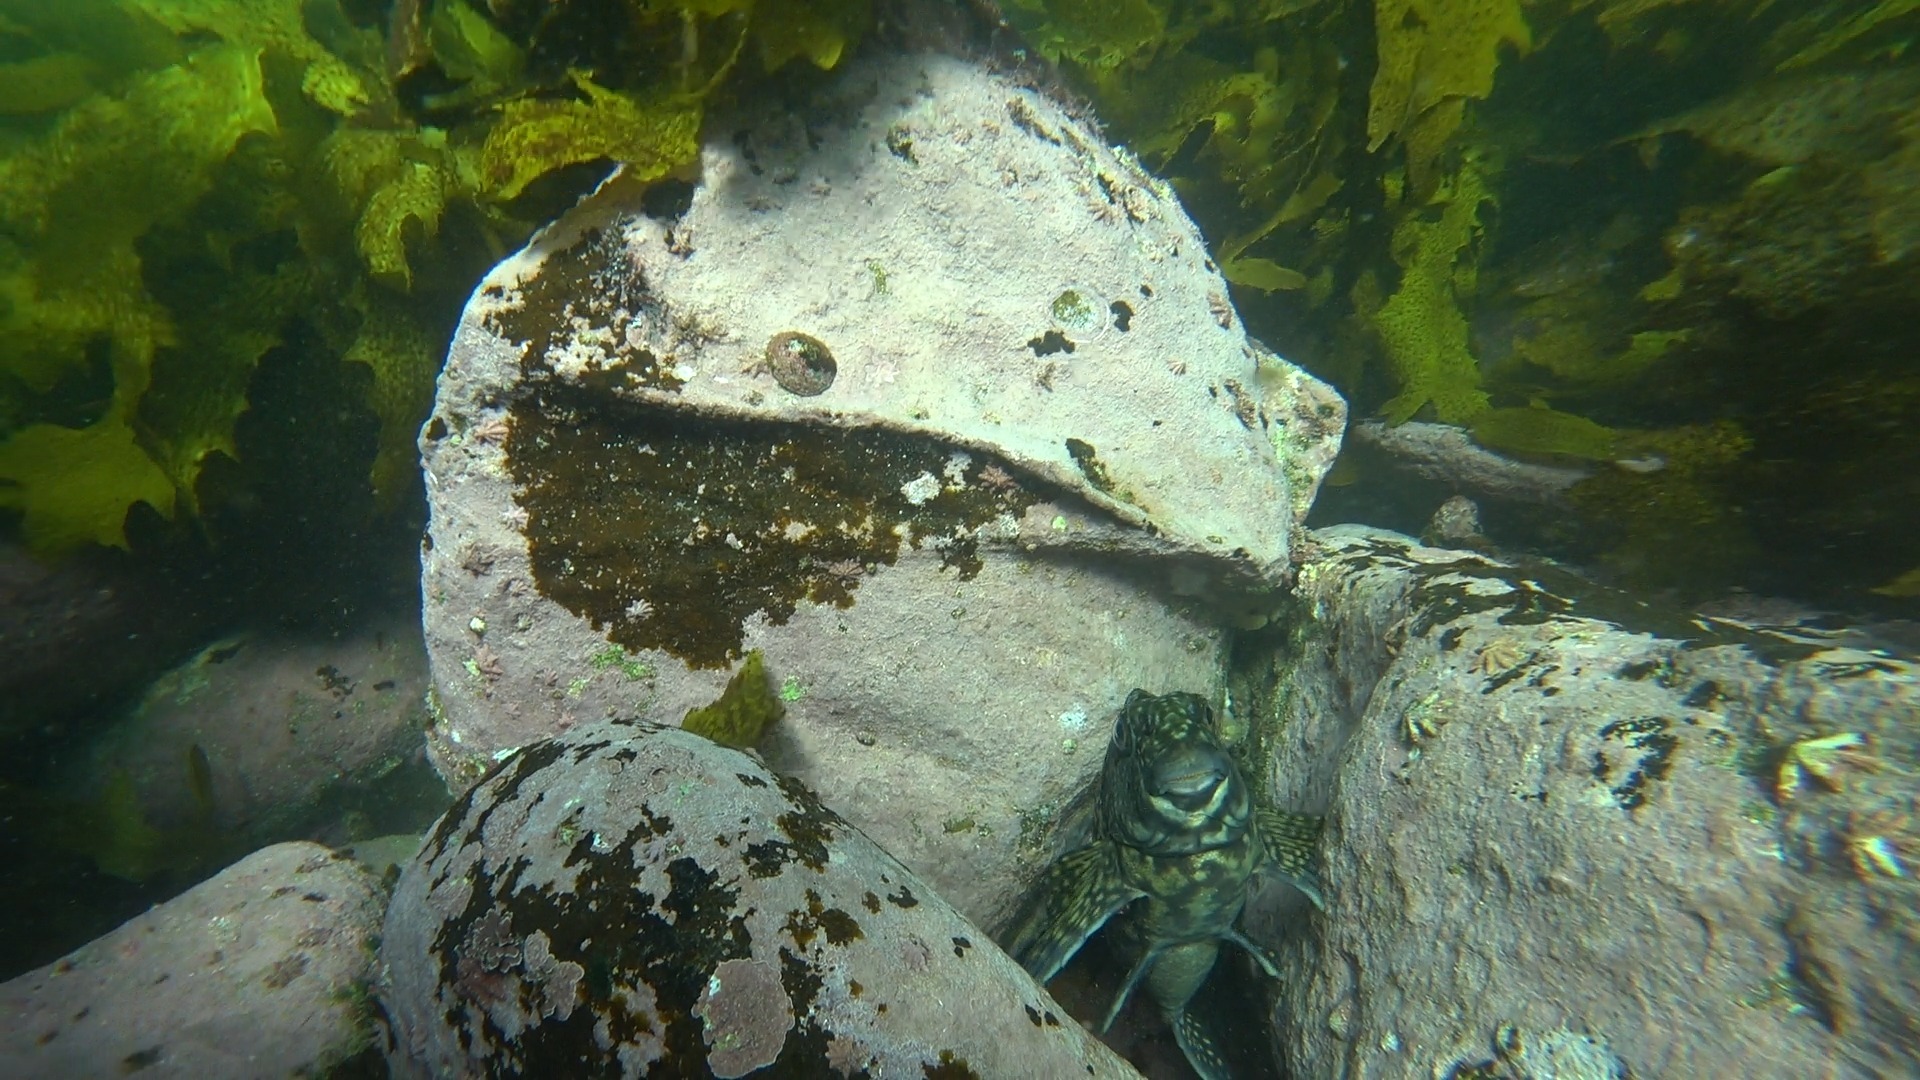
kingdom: Animalia
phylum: Chordata
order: Perciformes
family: Aplodactylidae
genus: Aplodactylus
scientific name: Aplodactylus lophodon
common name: Cockatoo fish
